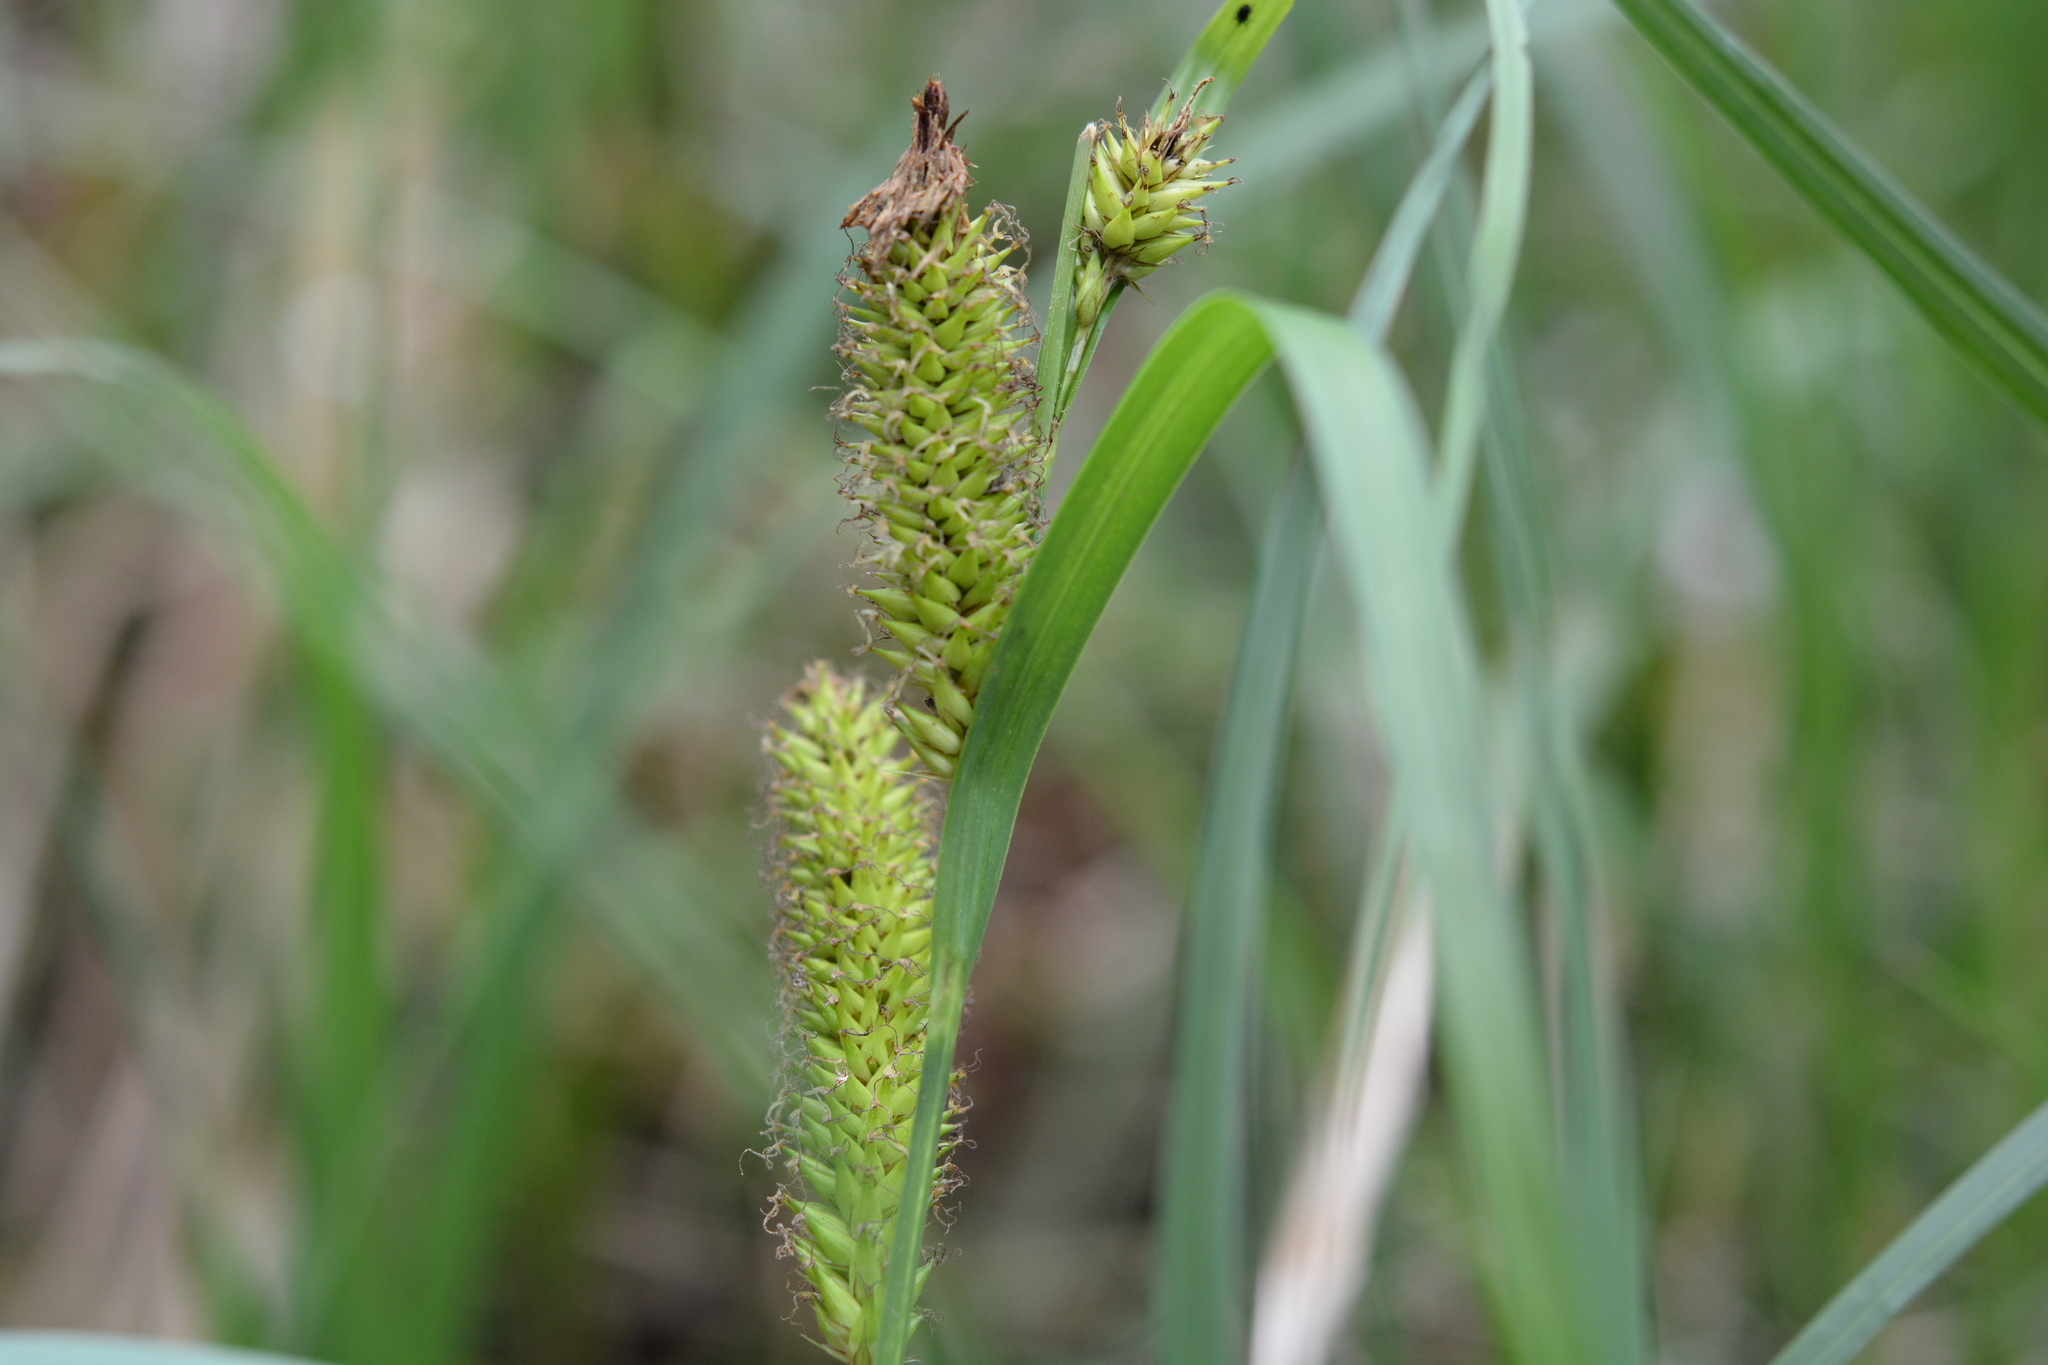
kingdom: Plantae
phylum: Tracheophyta
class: Liliopsida
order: Poales
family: Cyperaceae
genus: Carex
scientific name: Carex hyalinolepis
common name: Shoreline sedge
